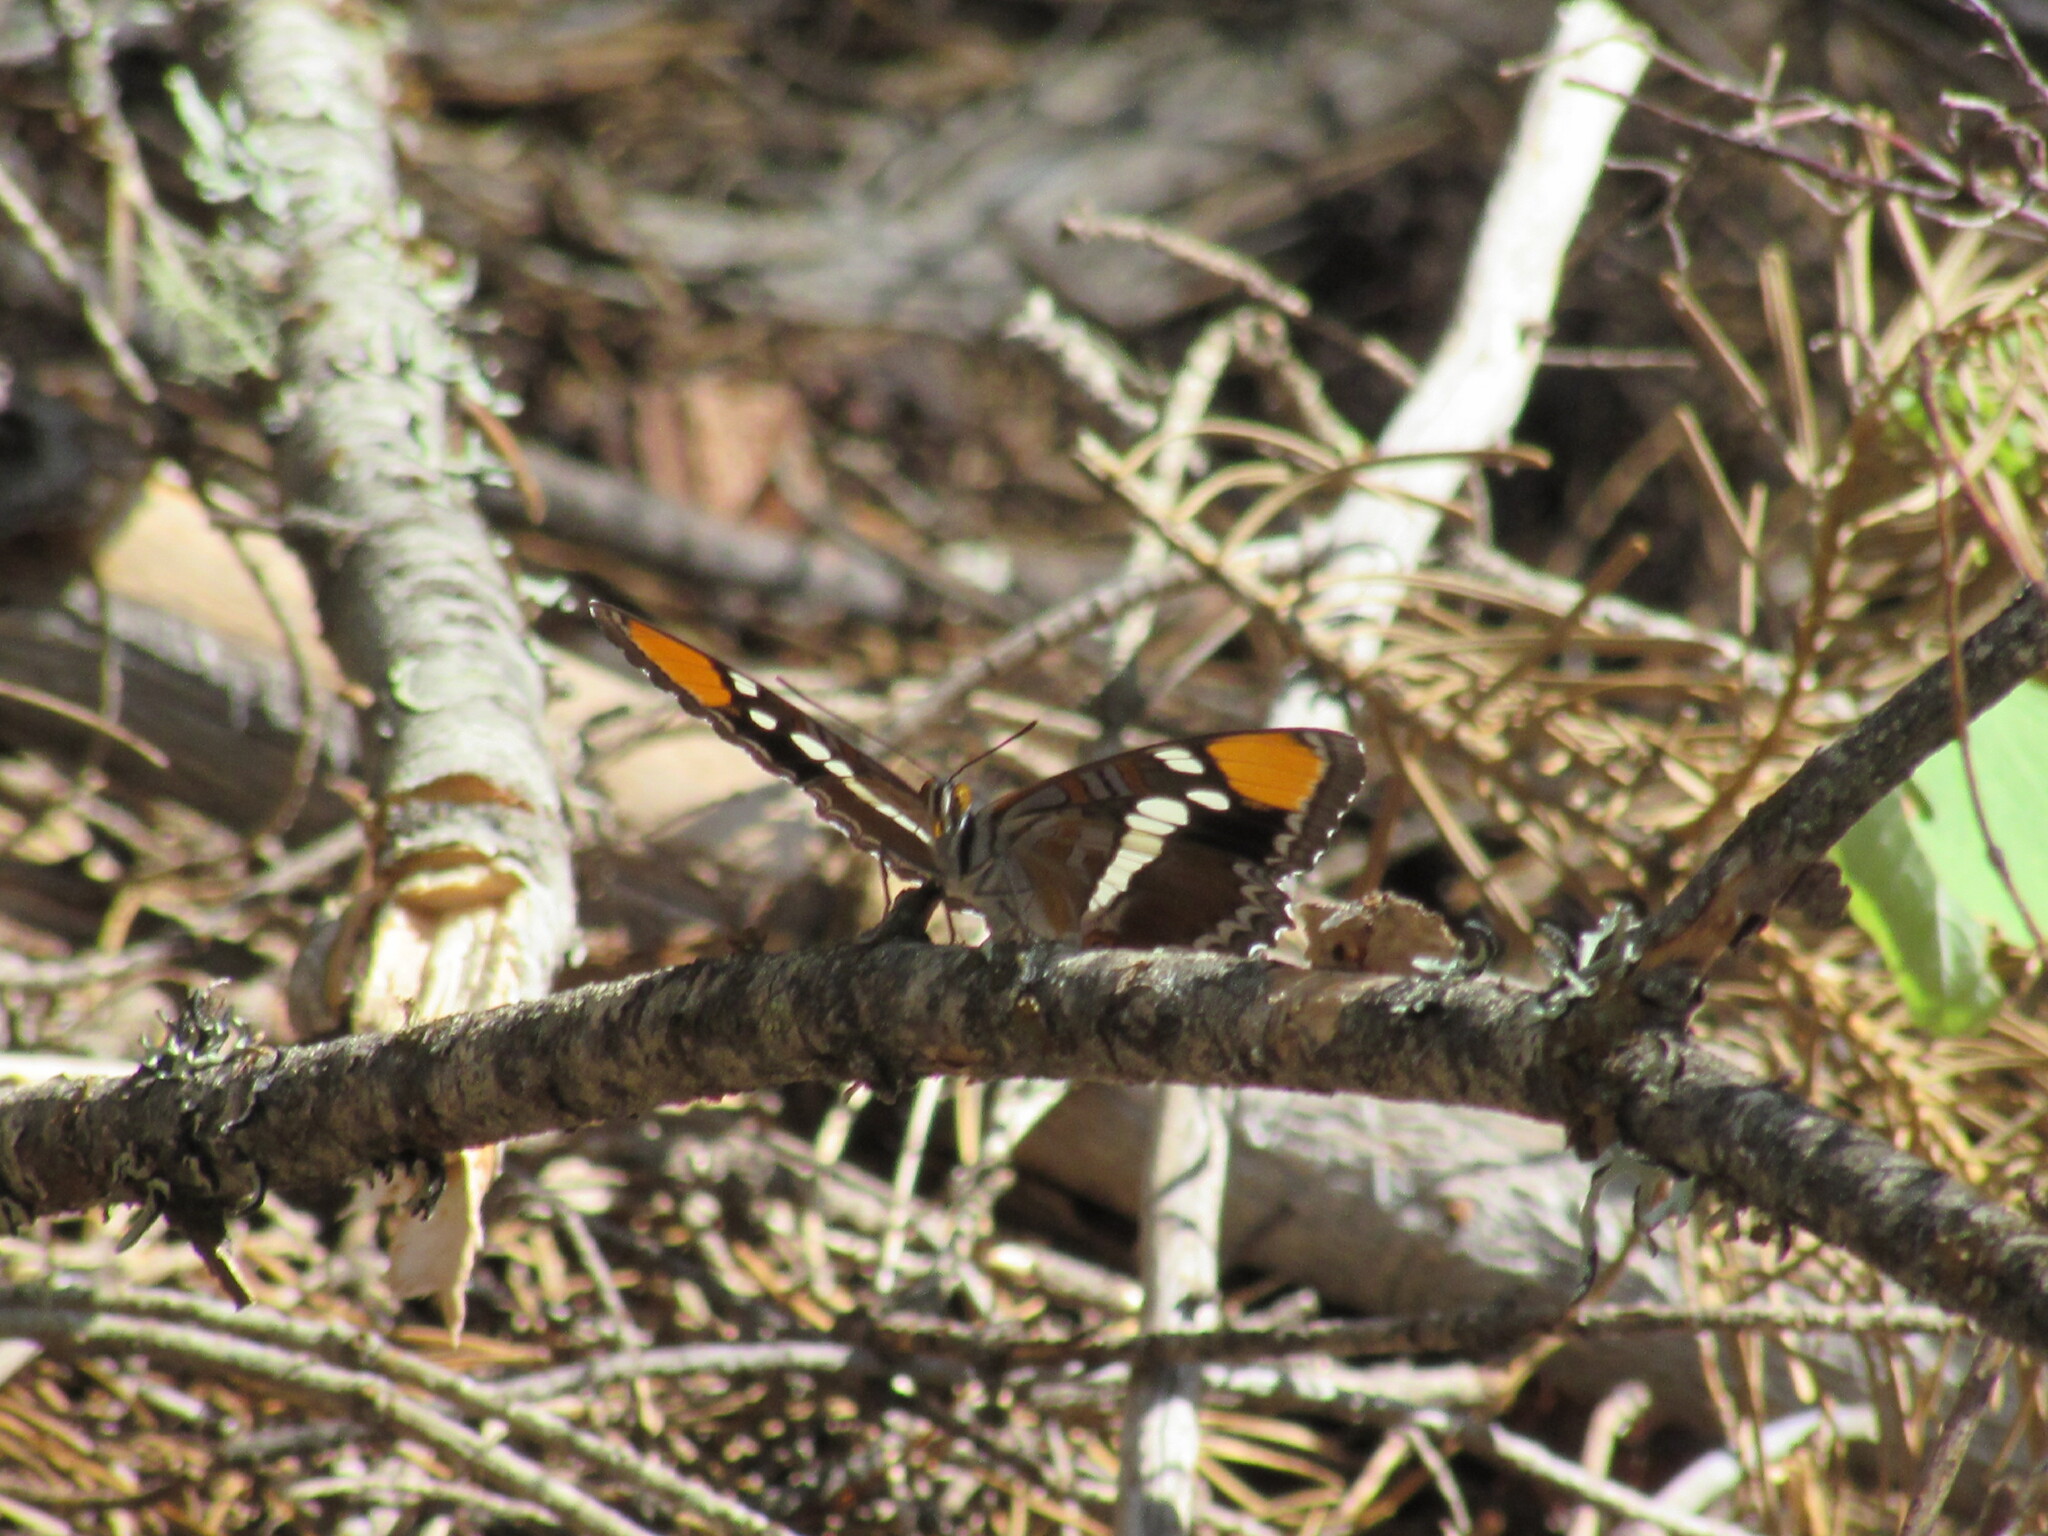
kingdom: Animalia
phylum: Arthropoda
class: Insecta
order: Lepidoptera
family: Nymphalidae
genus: Limenitis
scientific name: Limenitis bredowii
